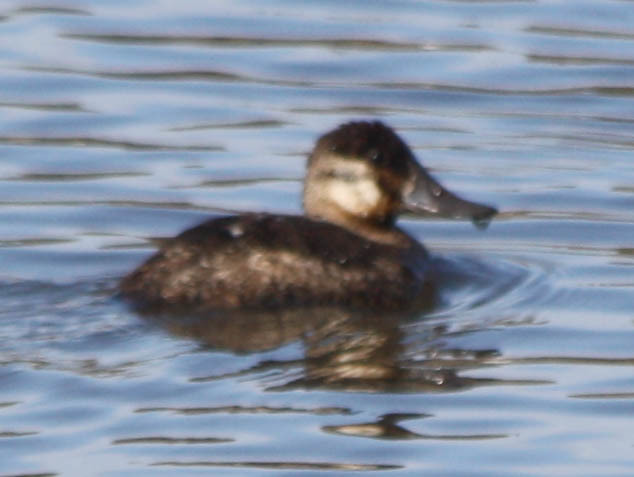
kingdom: Animalia
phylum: Chordata
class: Aves
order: Anseriformes
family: Anatidae
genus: Oxyura
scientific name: Oxyura jamaicensis
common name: Ruddy duck
